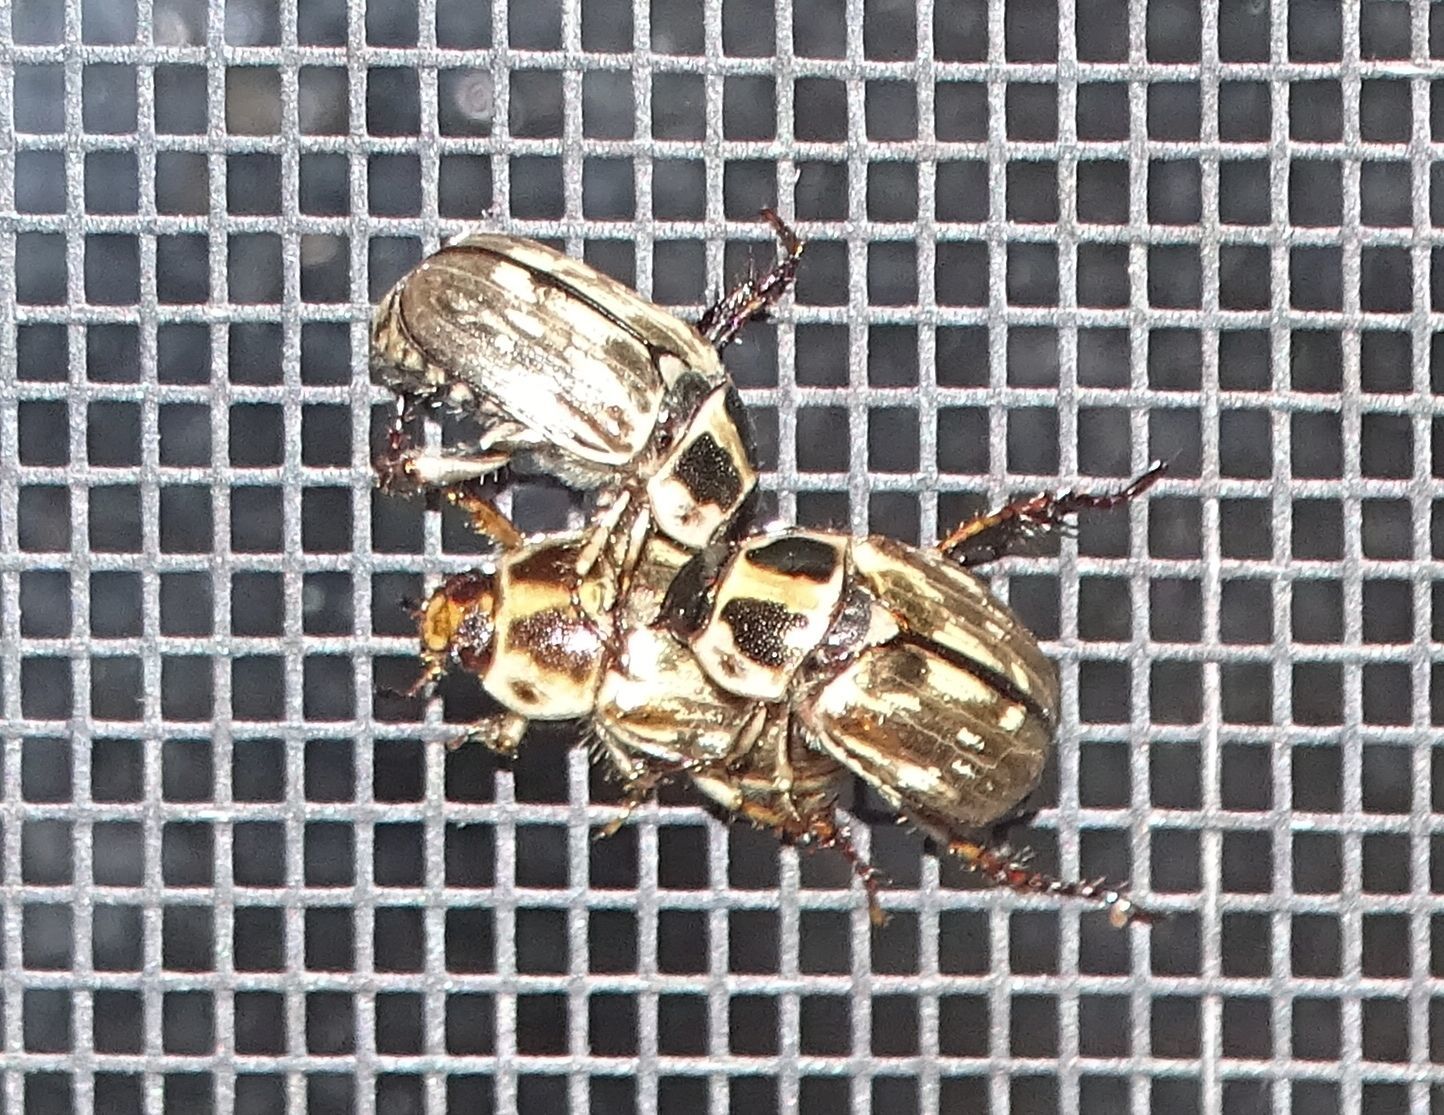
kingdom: Animalia
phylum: Arthropoda
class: Insecta
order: Coleoptera
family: Scarabaeidae
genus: Exomala
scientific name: Exomala orientalis
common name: Oriental beetle
